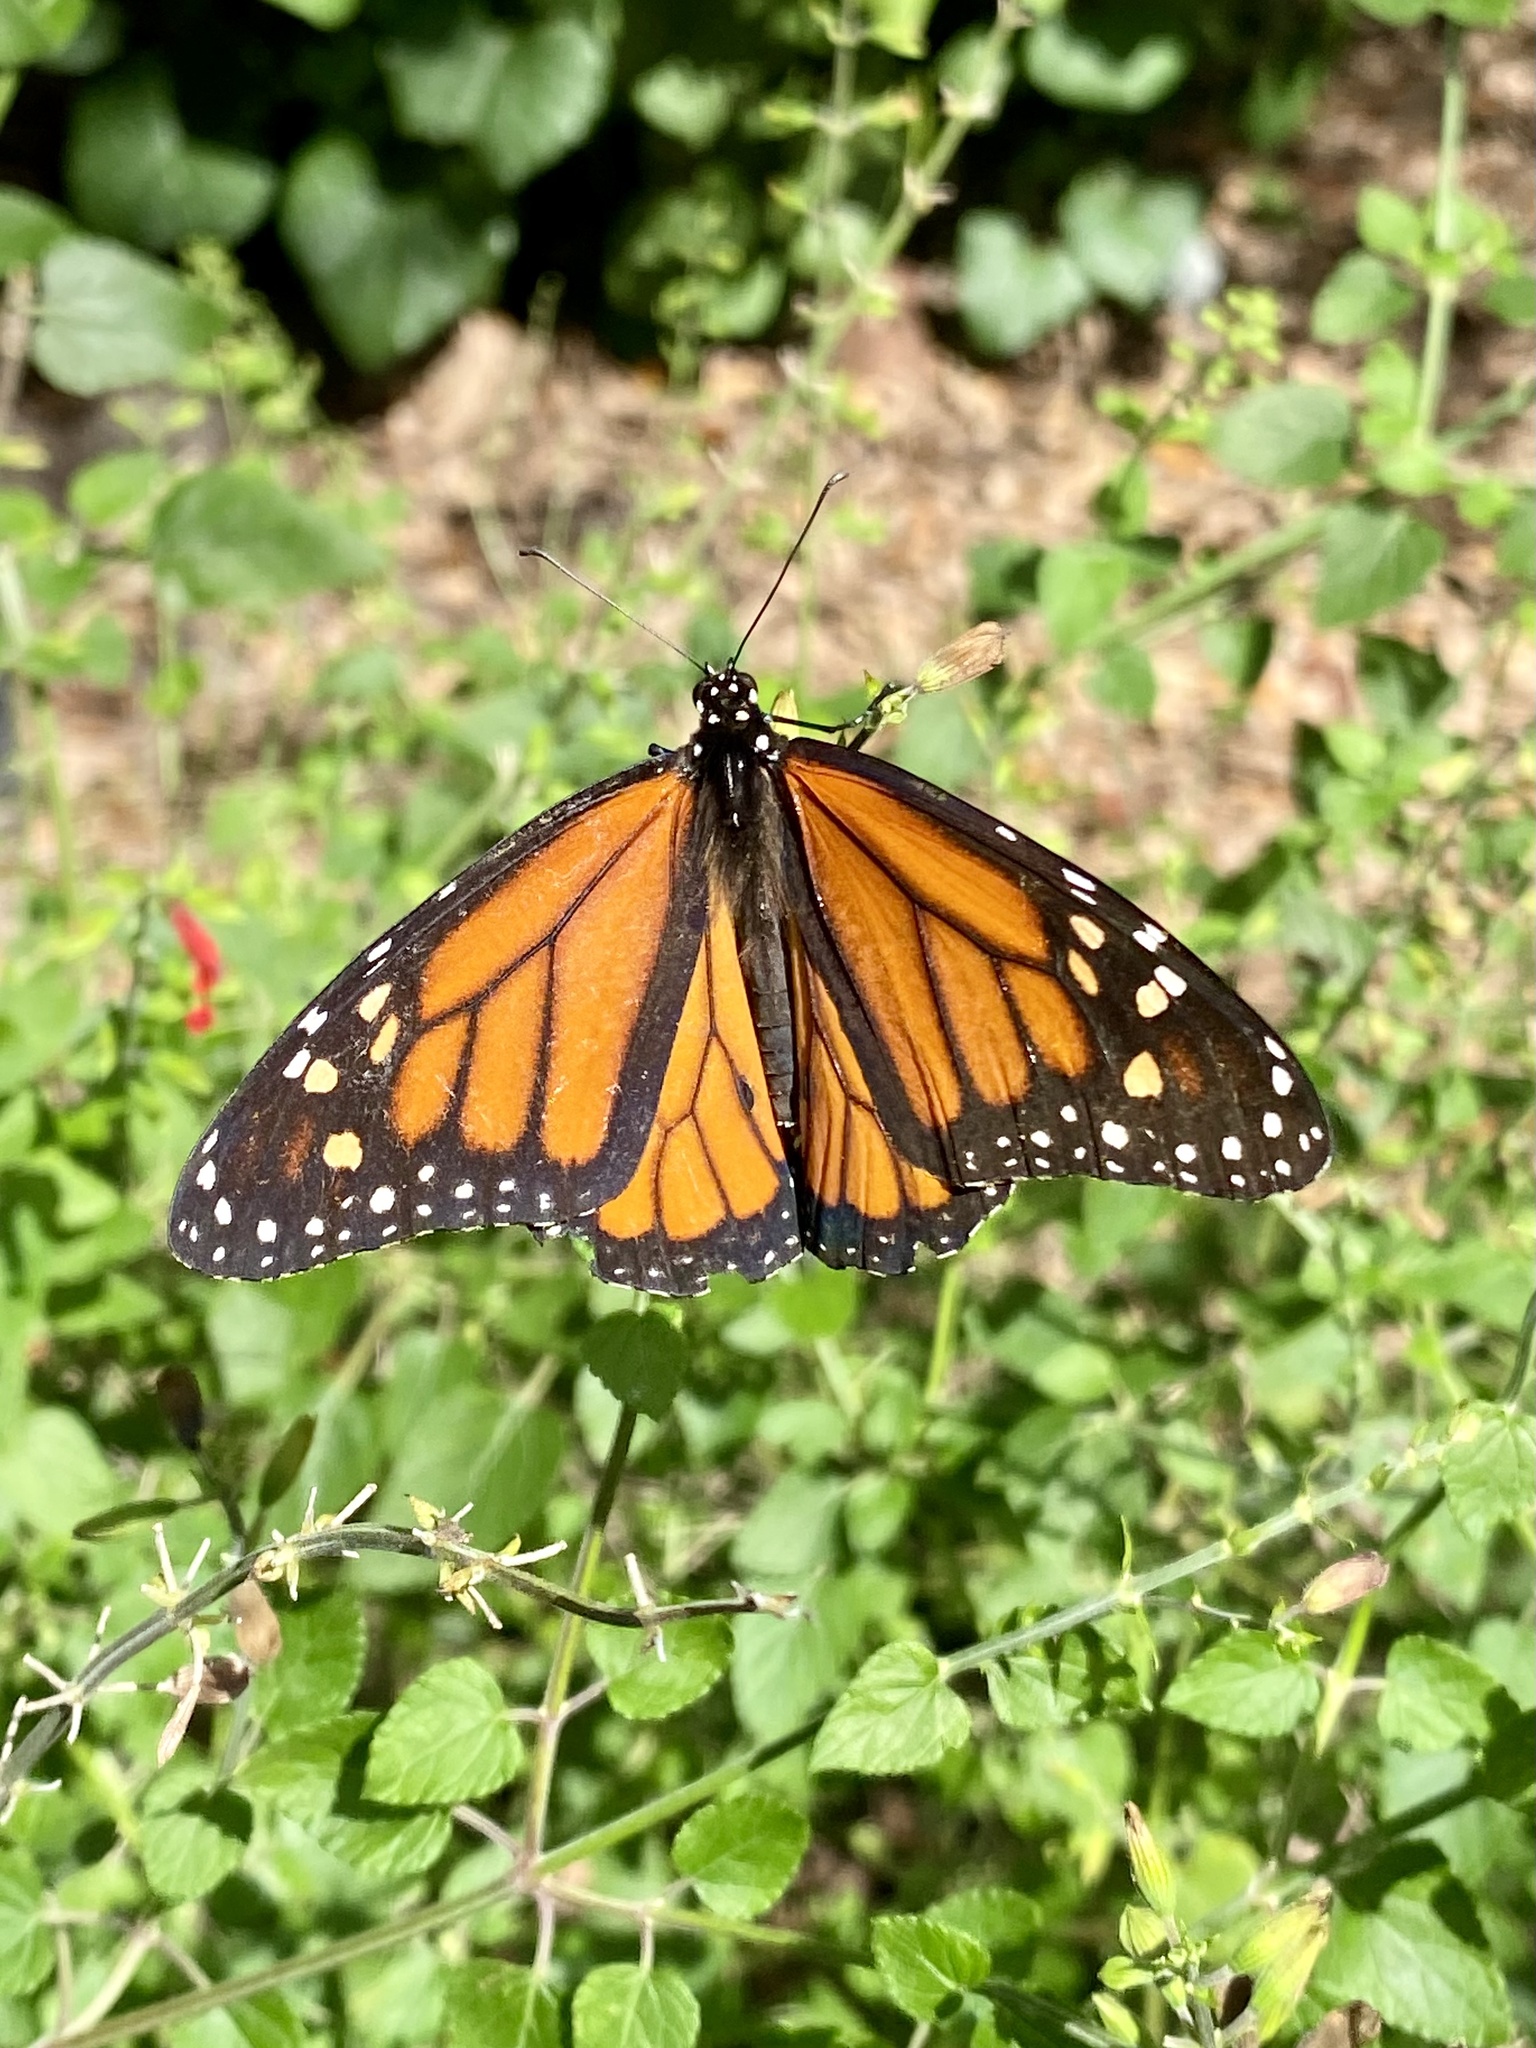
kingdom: Animalia
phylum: Arthropoda
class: Insecta
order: Lepidoptera
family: Nymphalidae
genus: Danaus
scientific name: Danaus plexippus
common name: Monarch
